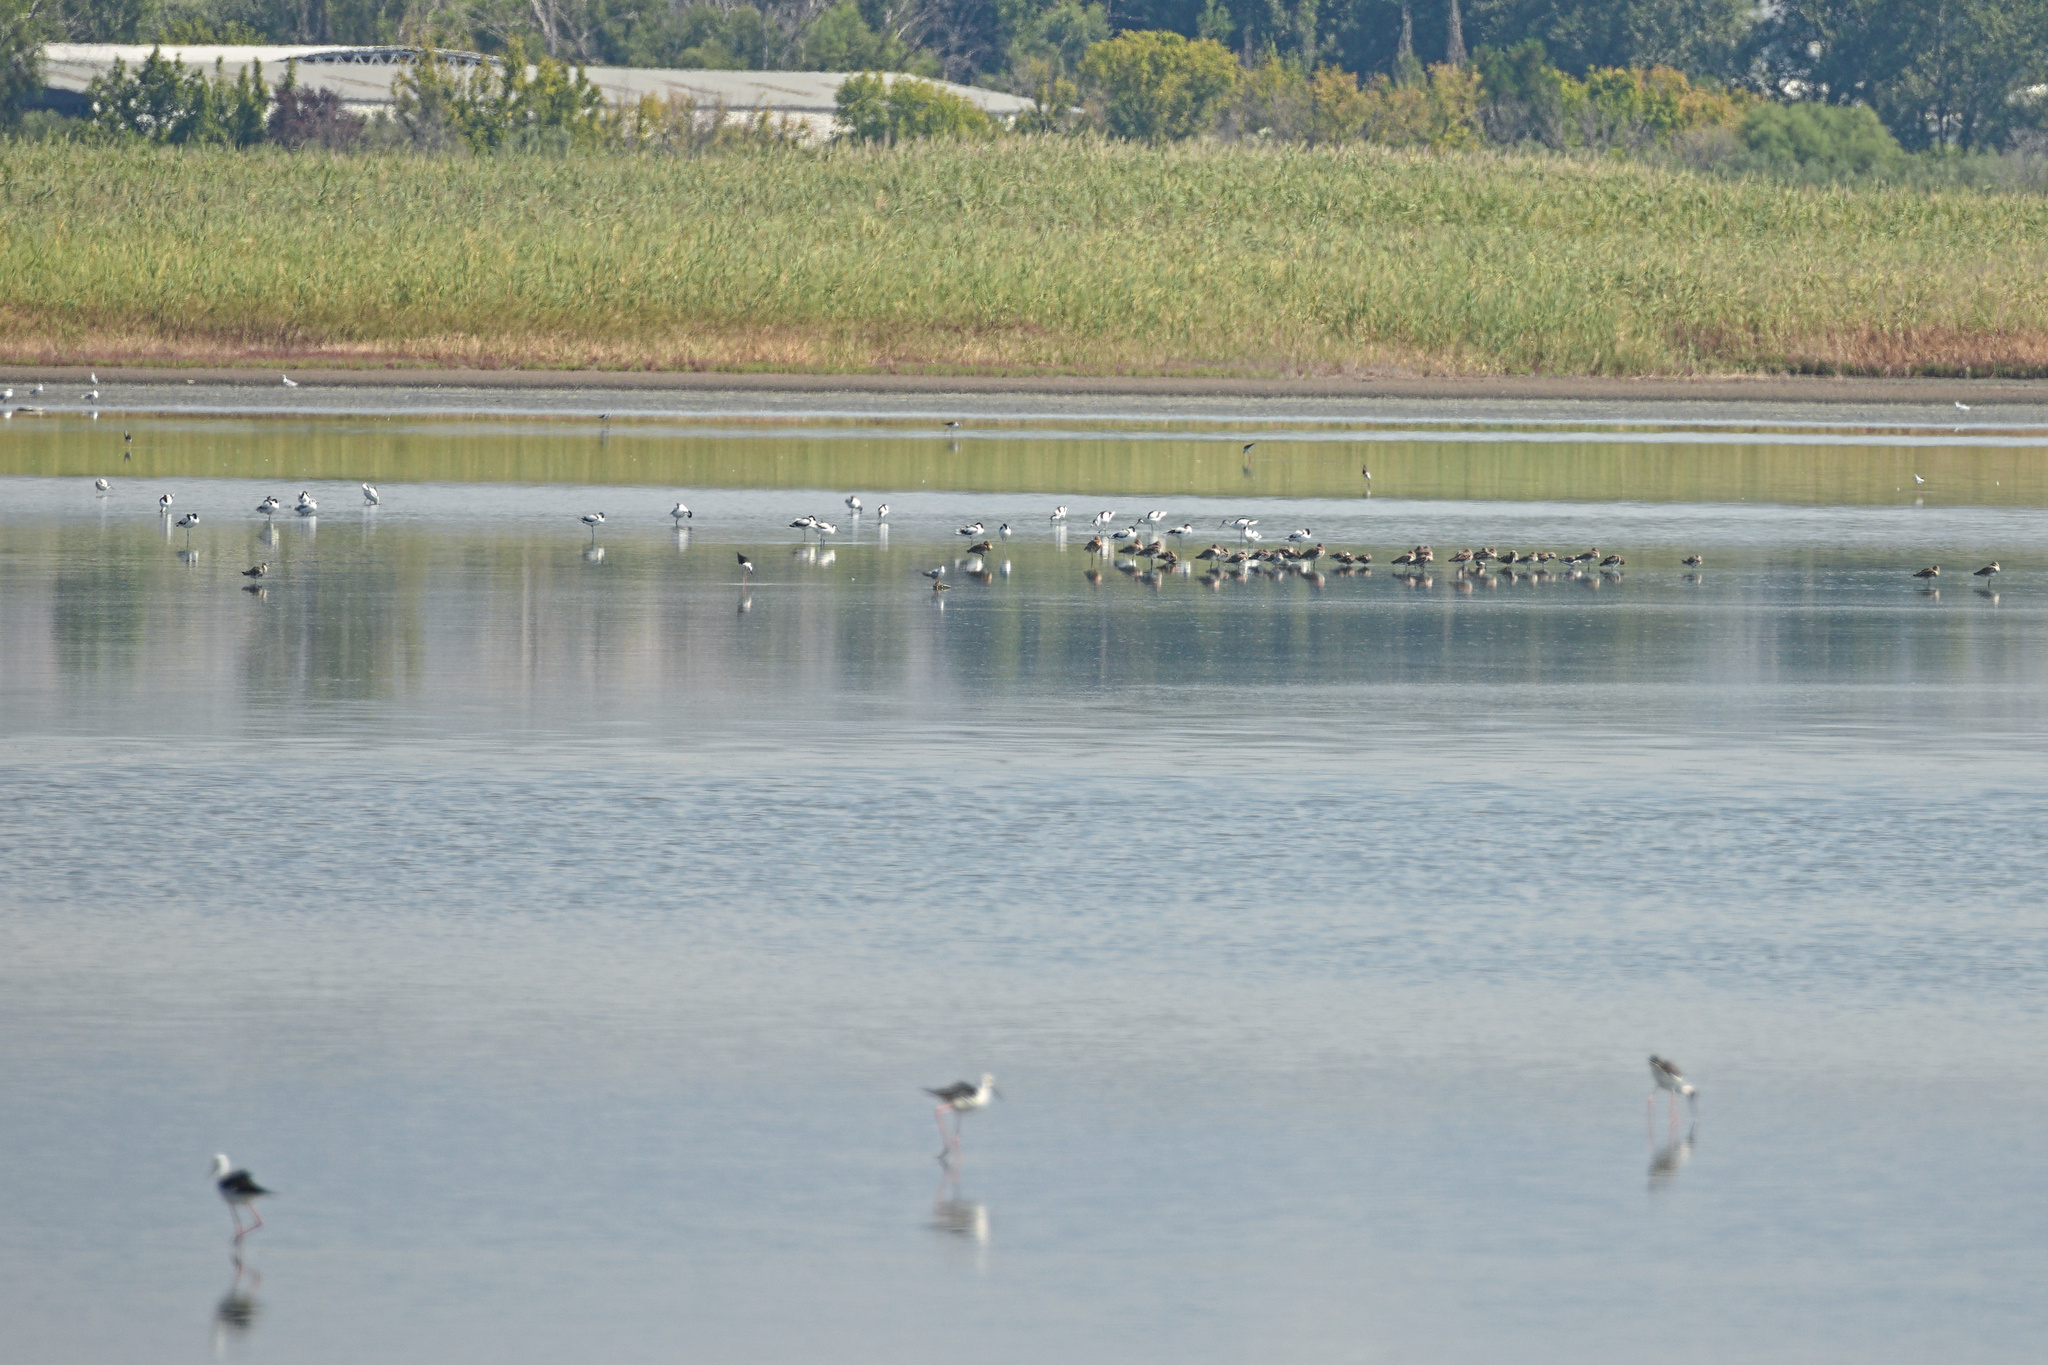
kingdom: Animalia
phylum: Chordata
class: Aves
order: Charadriiformes
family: Recurvirostridae
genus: Recurvirostra
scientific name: Recurvirostra avosetta
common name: Pied avocet
